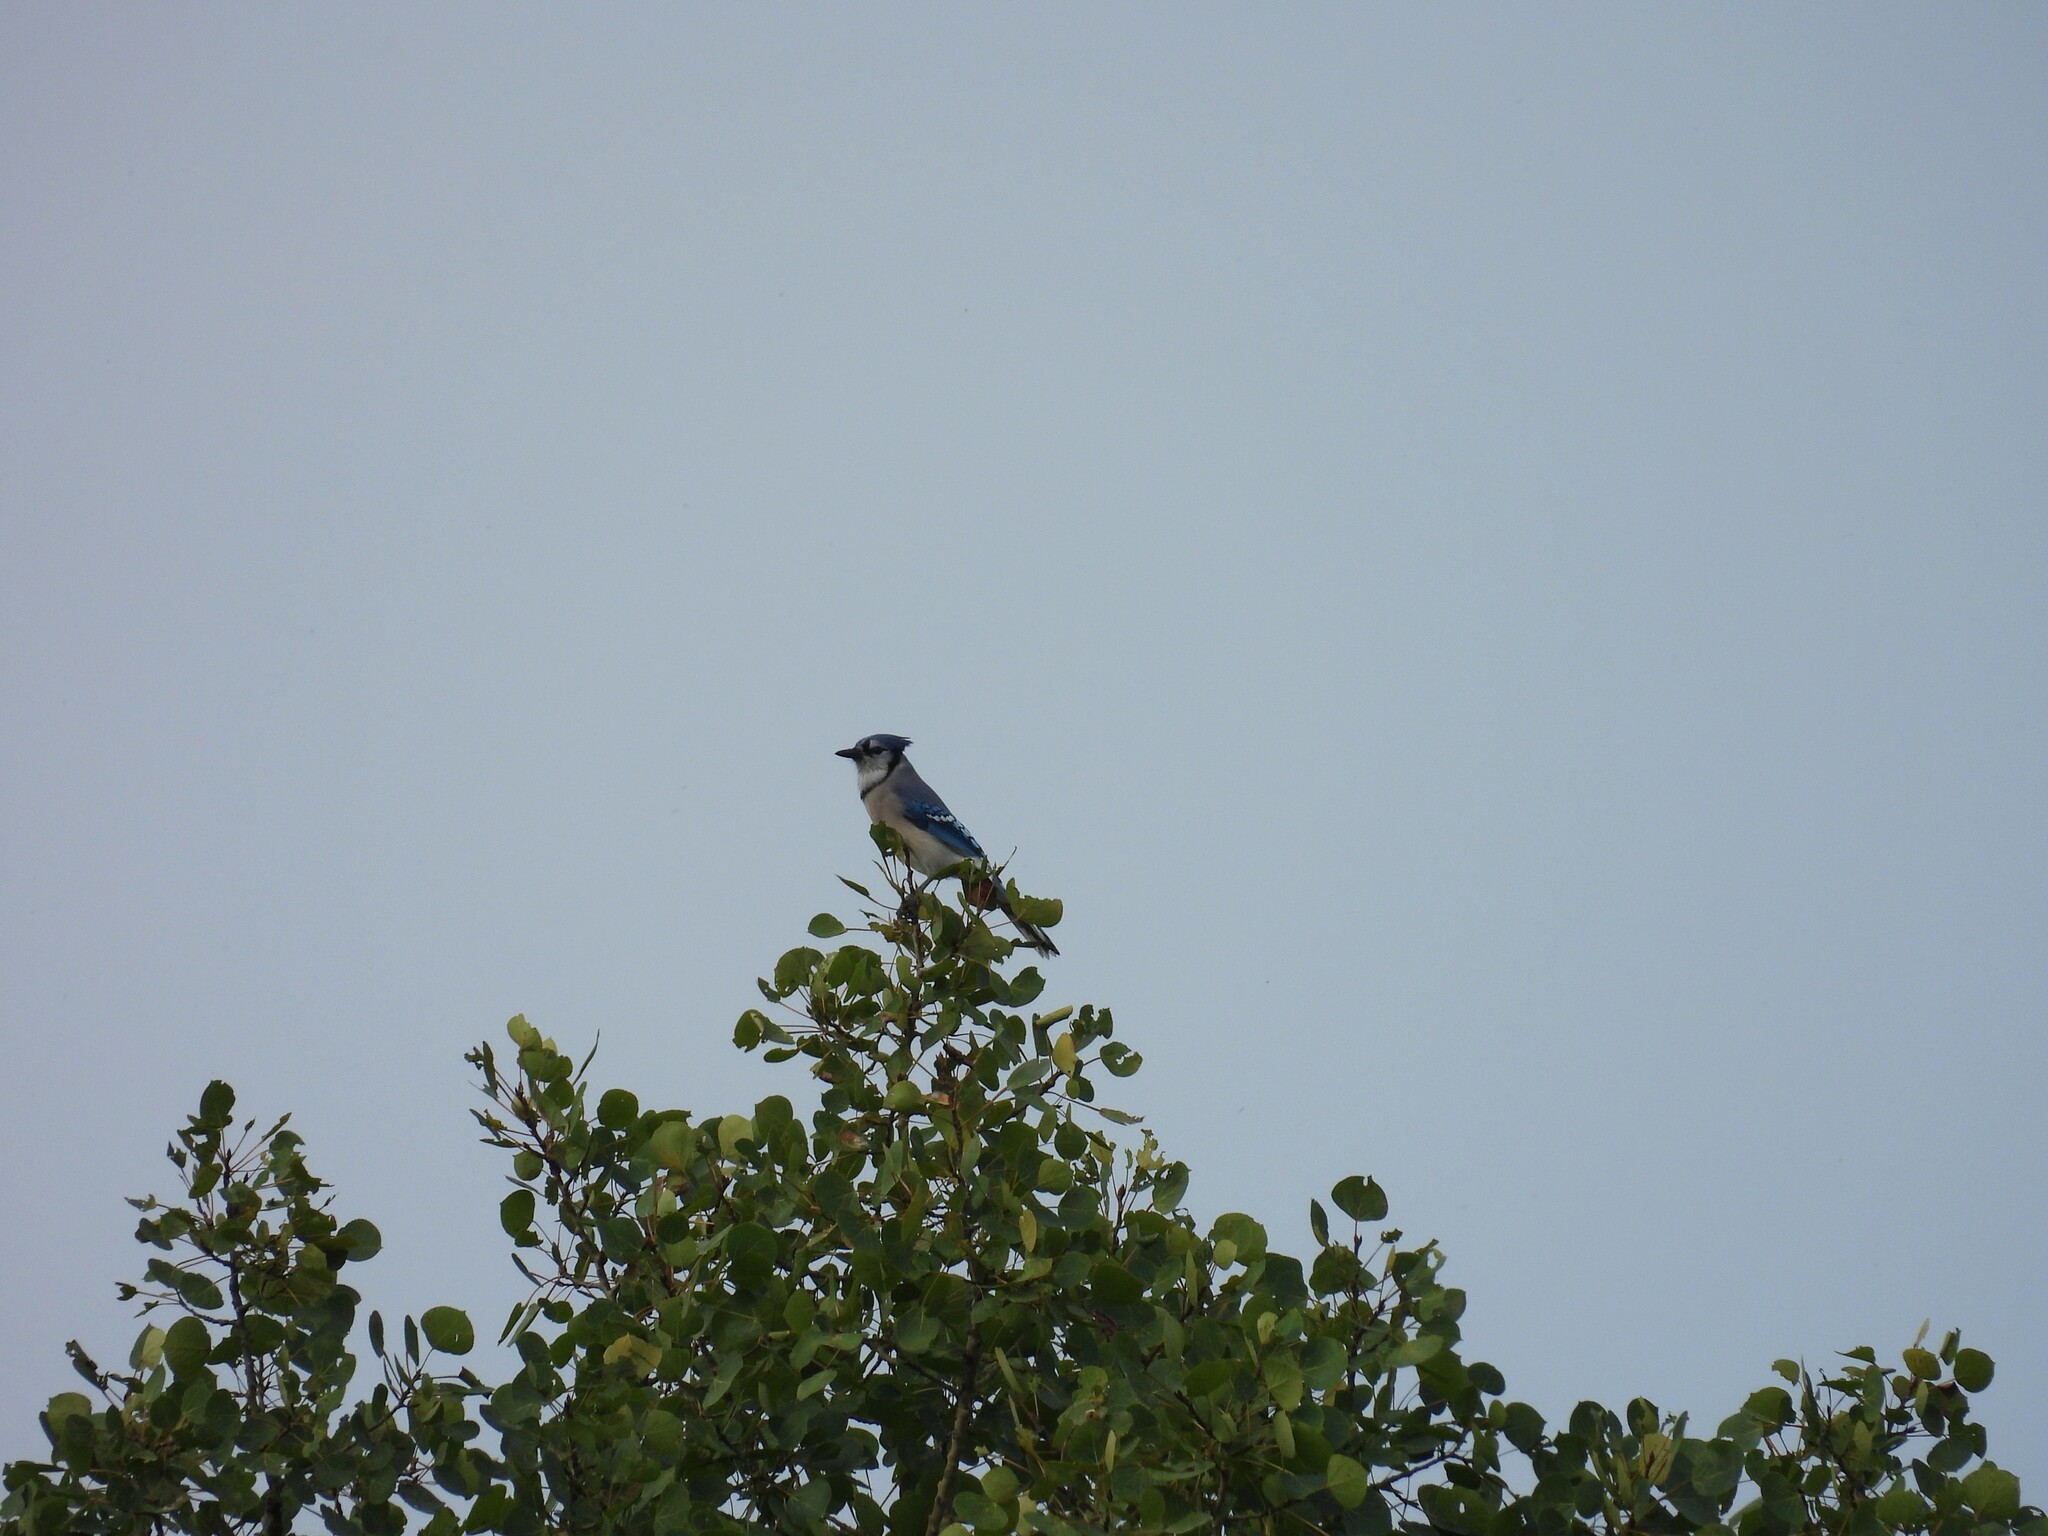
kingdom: Animalia
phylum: Chordata
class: Aves
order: Passeriformes
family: Corvidae
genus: Cyanocitta
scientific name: Cyanocitta cristata
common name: Blue jay
